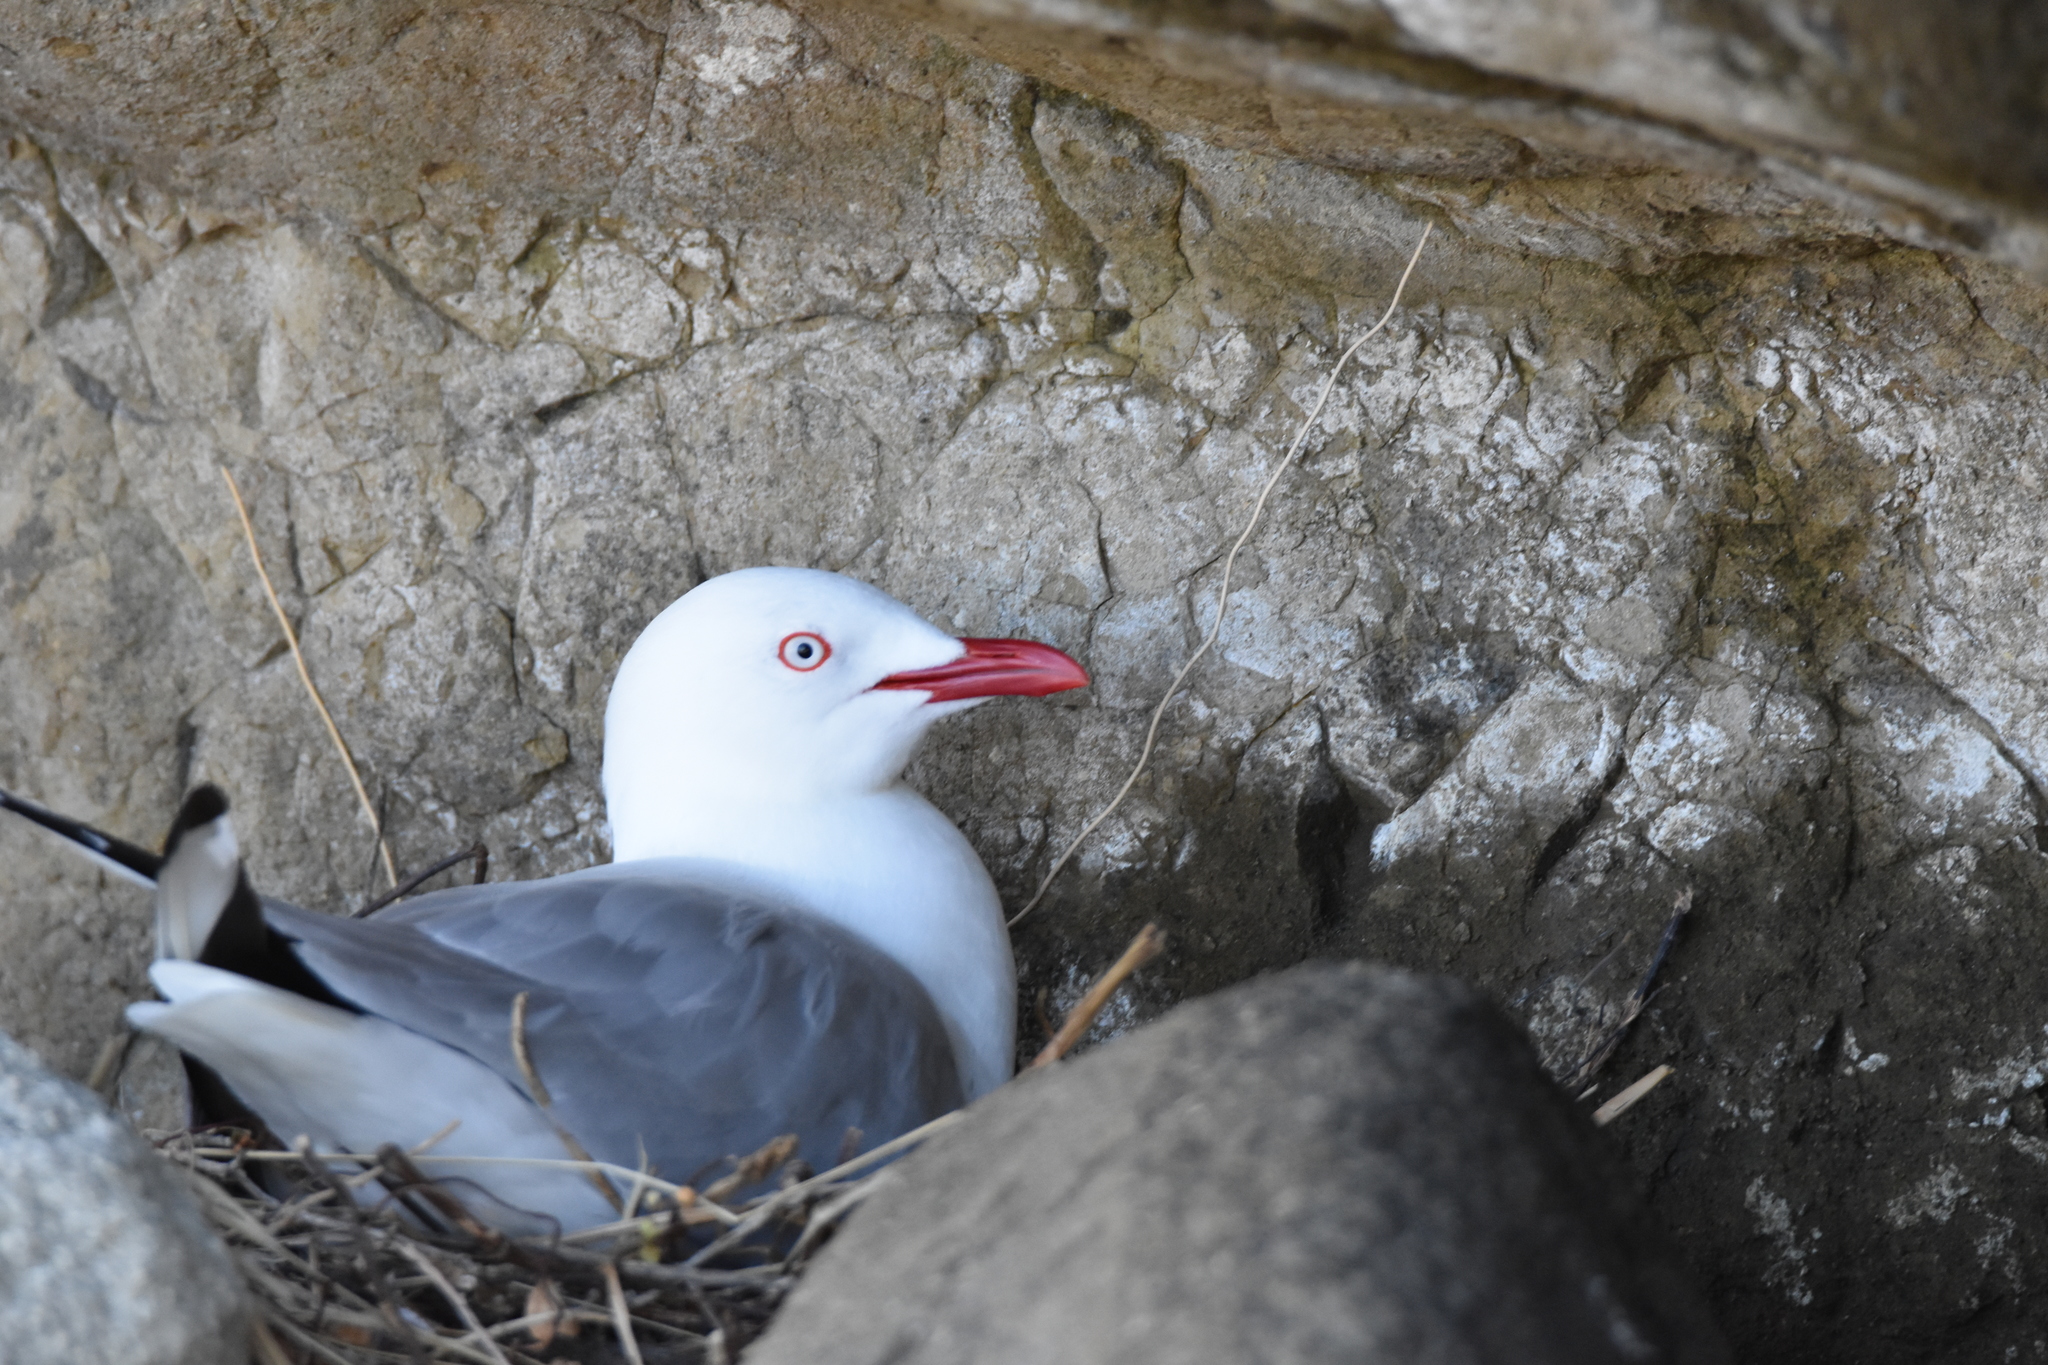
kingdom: Animalia
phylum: Chordata
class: Aves
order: Charadriiformes
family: Laridae
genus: Chroicocephalus
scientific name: Chroicocephalus novaehollandiae
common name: Silver gull
